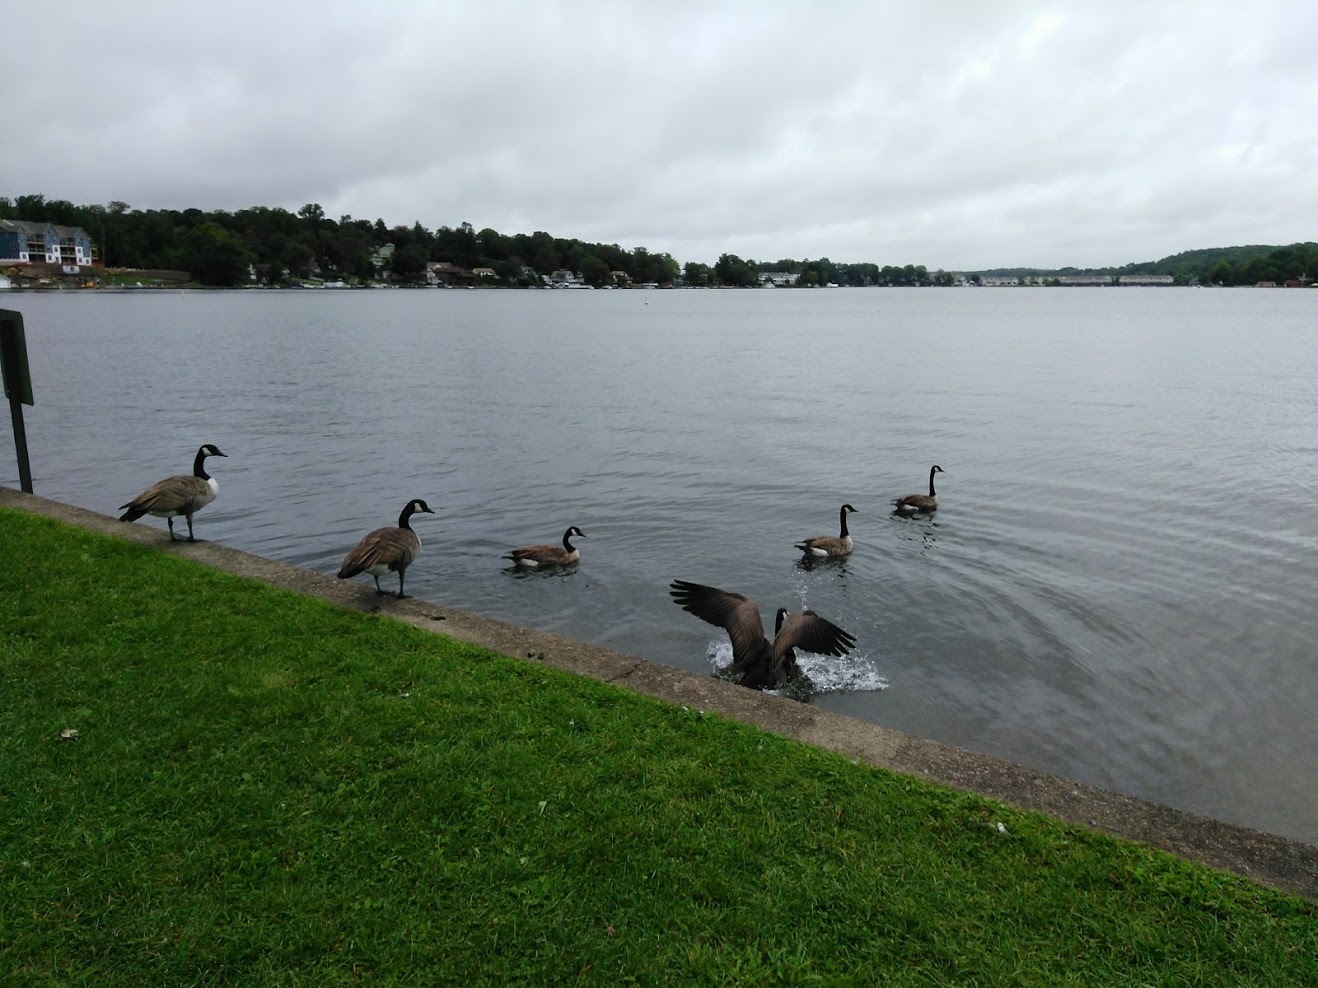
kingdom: Animalia
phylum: Chordata
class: Aves
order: Anseriformes
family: Anatidae
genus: Branta
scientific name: Branta canadensis
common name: Canada goose
